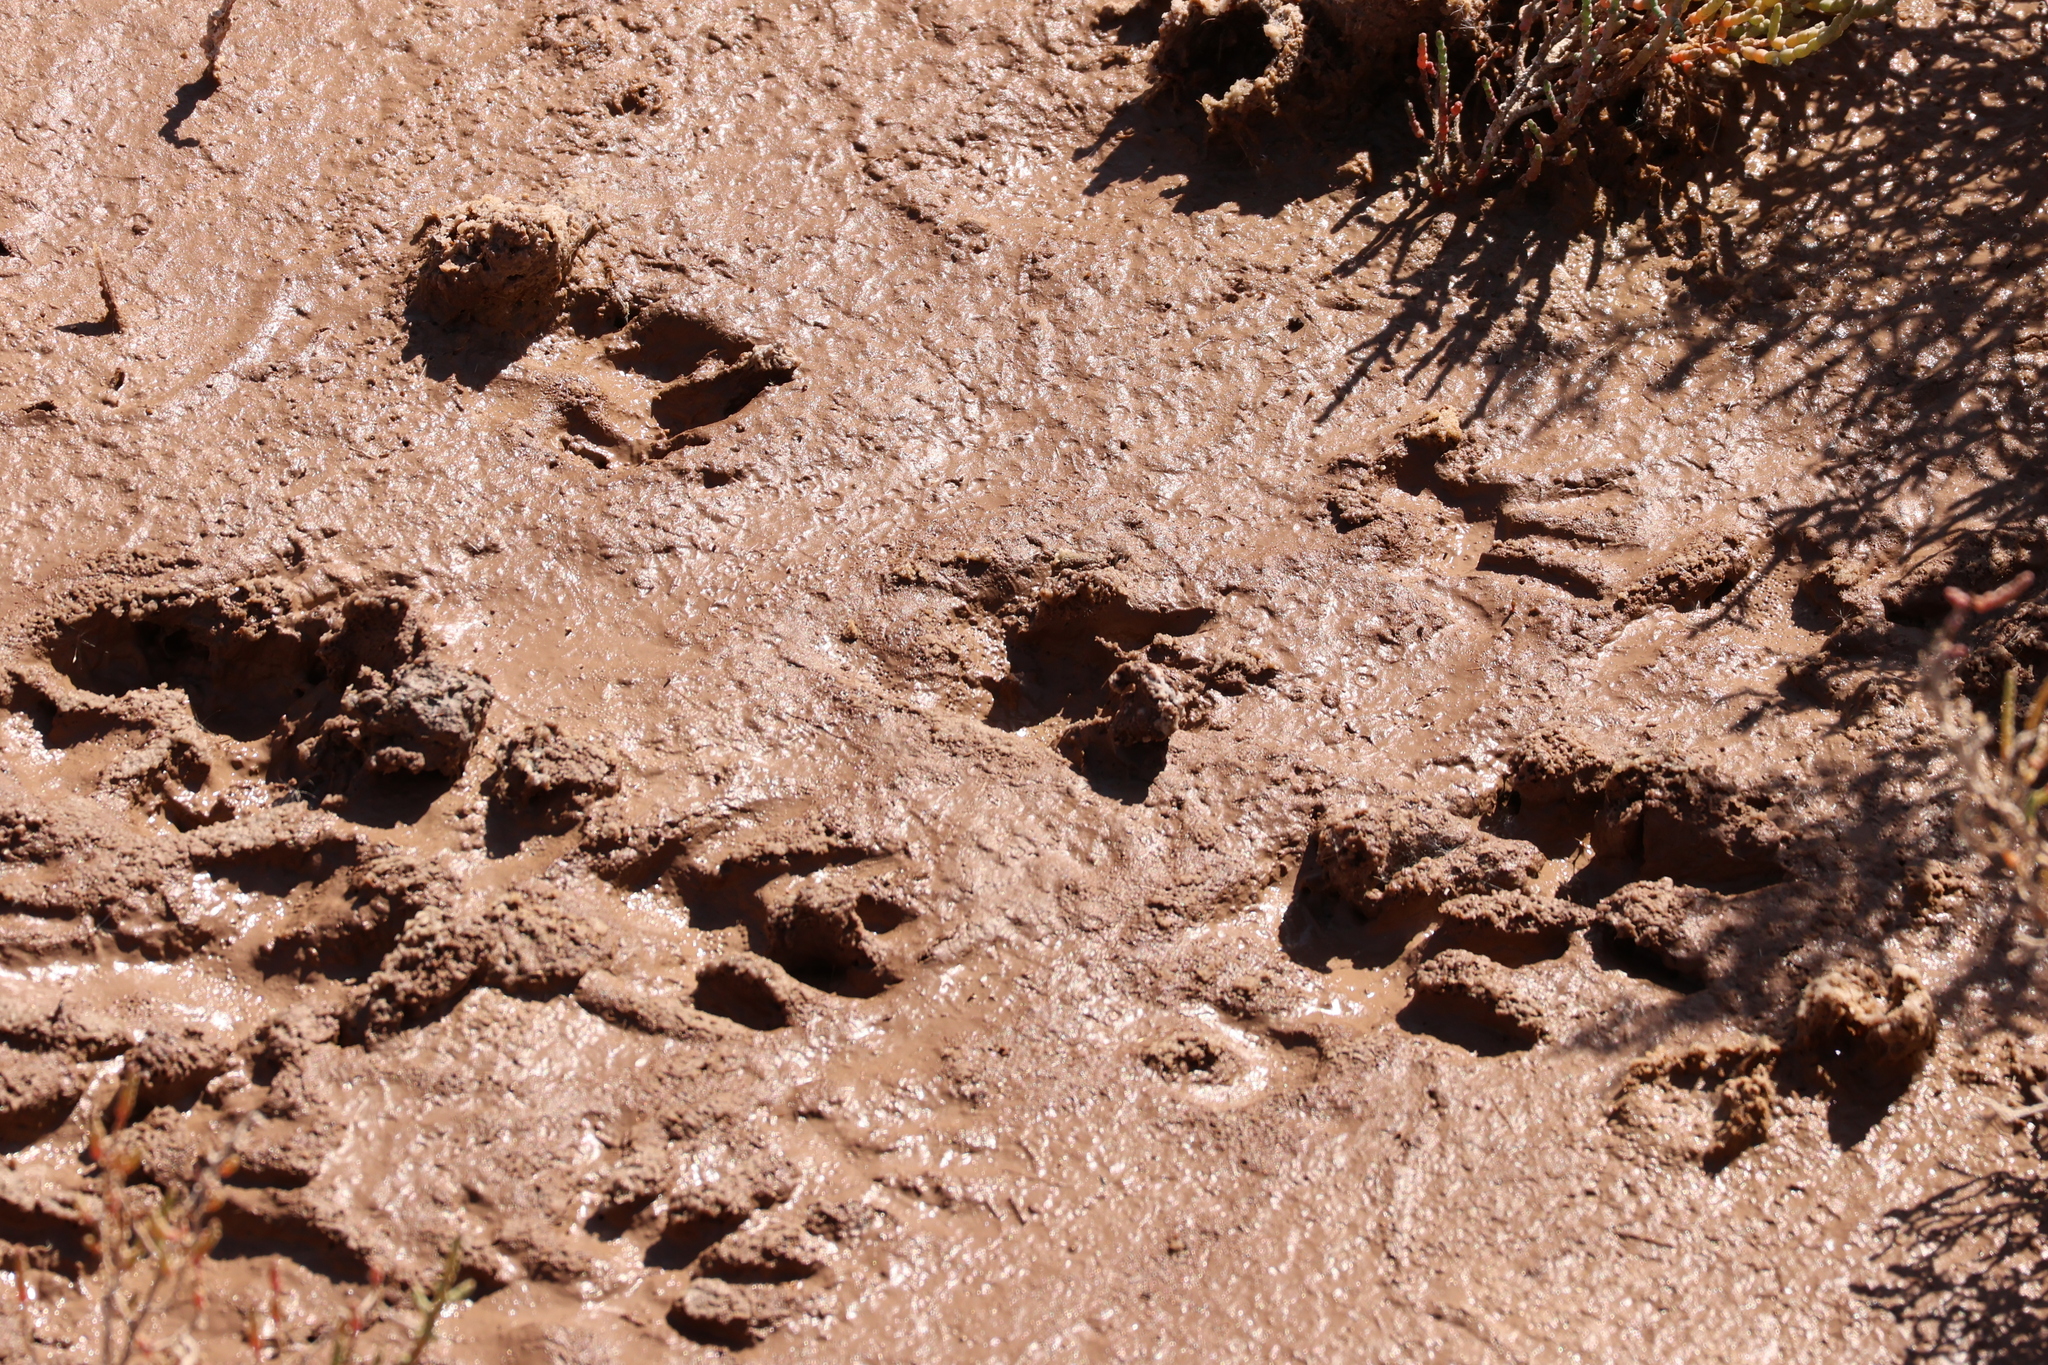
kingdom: Animalia
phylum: Chordata
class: Mammalia
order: Carnivora
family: Procyonidae
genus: Procyon
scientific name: Procyon lotor
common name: Raccoon
